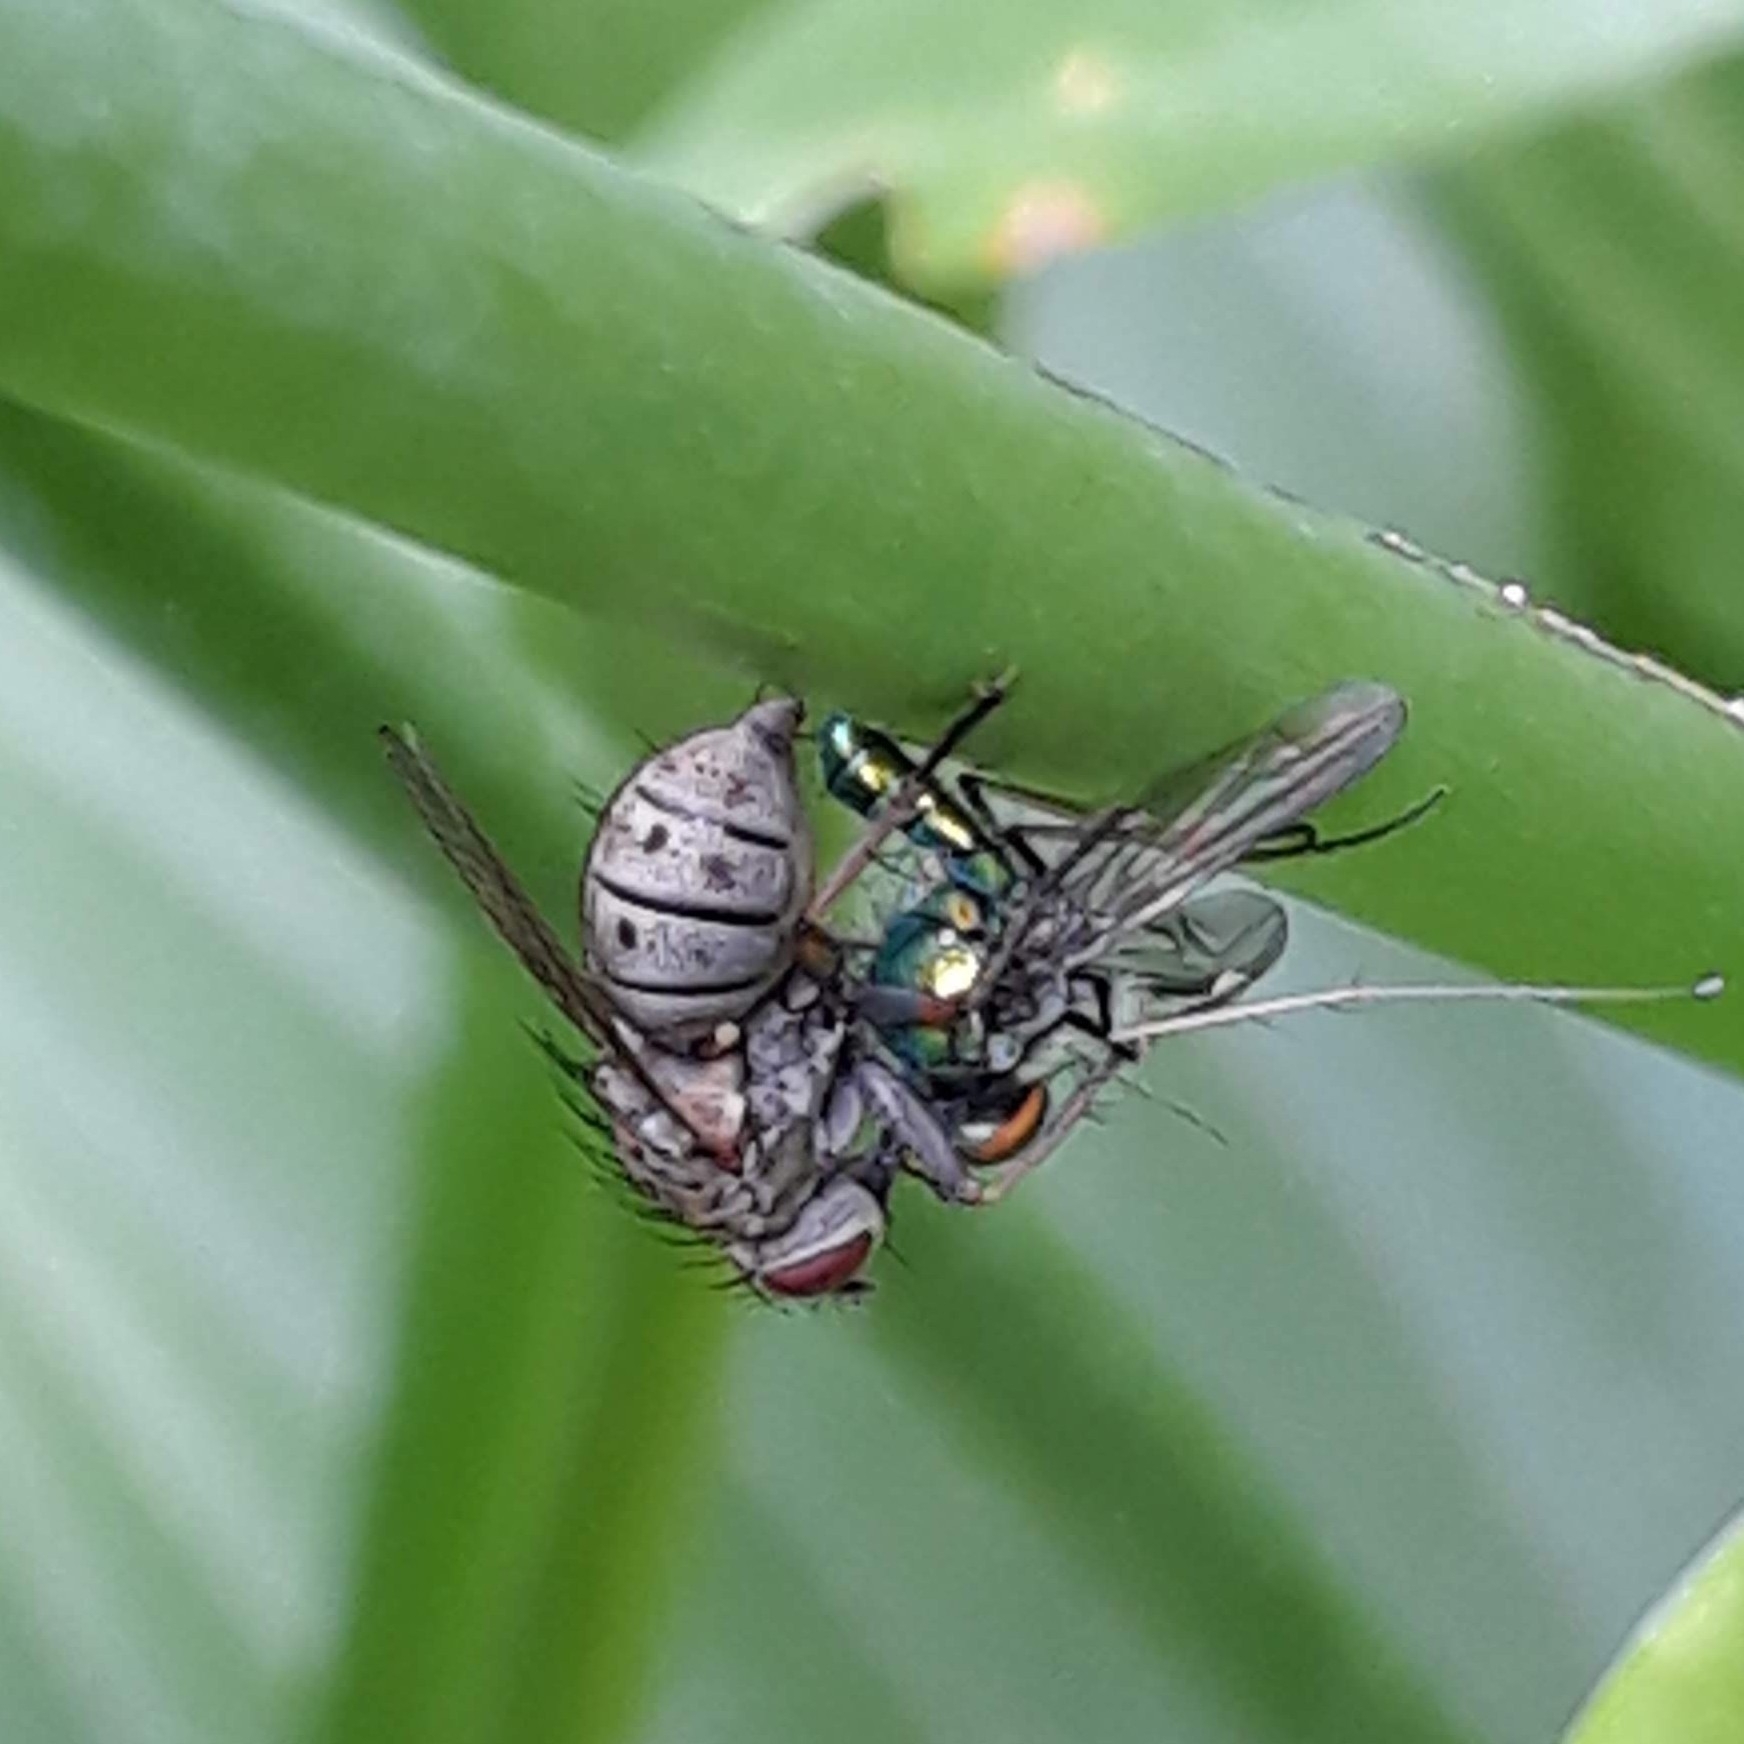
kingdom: Animalia
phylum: Arthropoda
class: Insecta
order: Diptera
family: Muscidae
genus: Coenosia
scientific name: Coenosia tigrina
